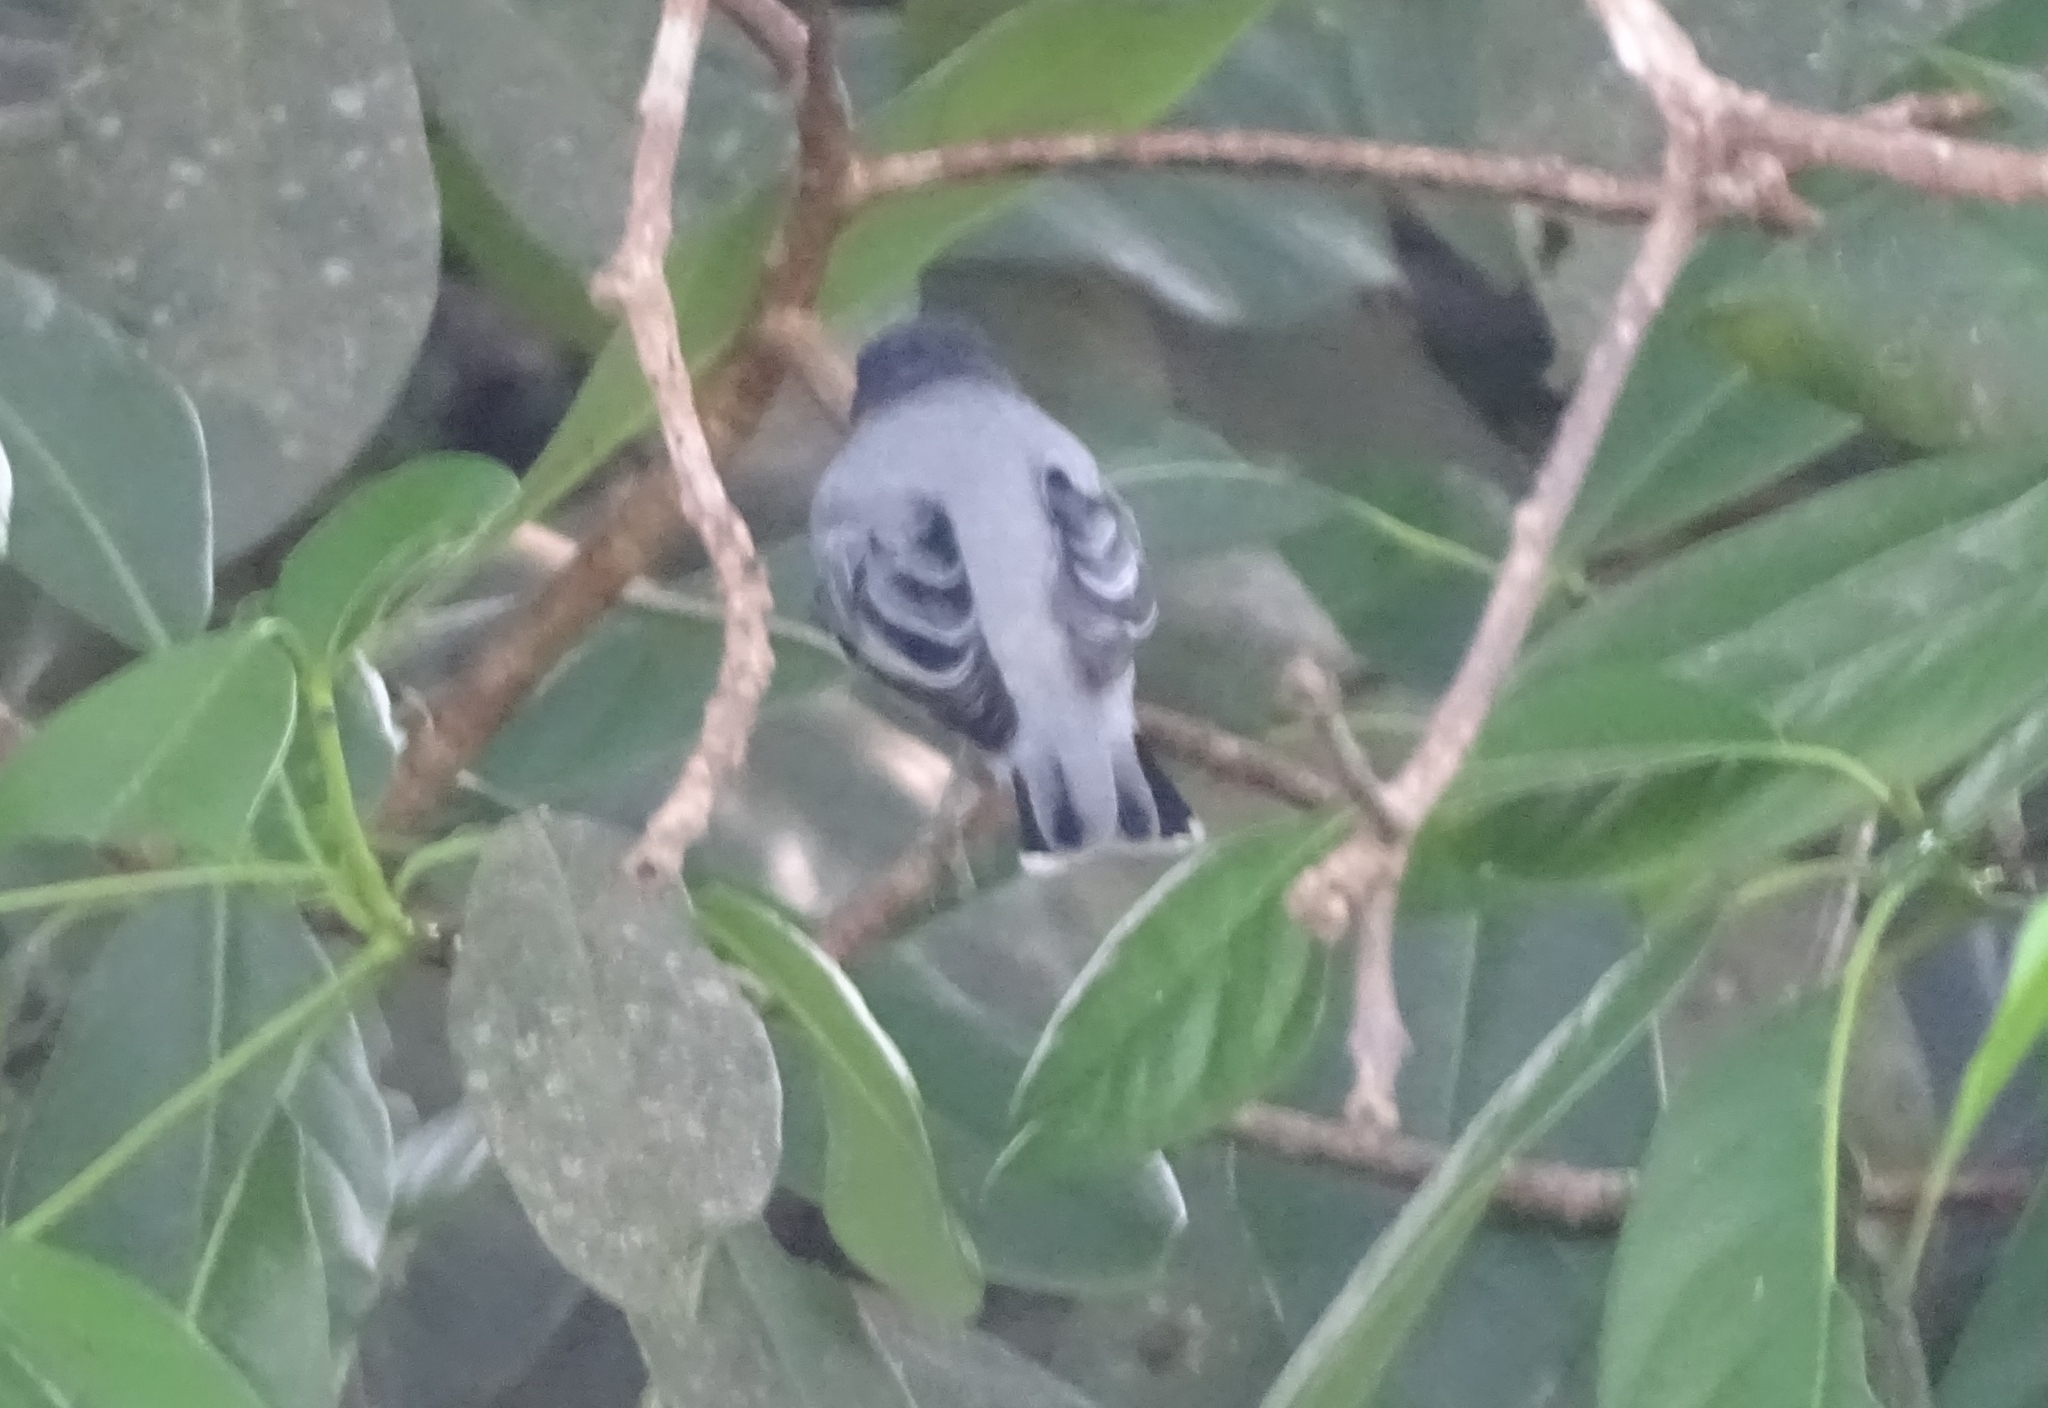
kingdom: Animalia
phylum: Chordata
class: Aves
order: Passeriformes
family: Campephagidae
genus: Coracina
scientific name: Coracina melanoptera
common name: Black-headed cuckooshrike
